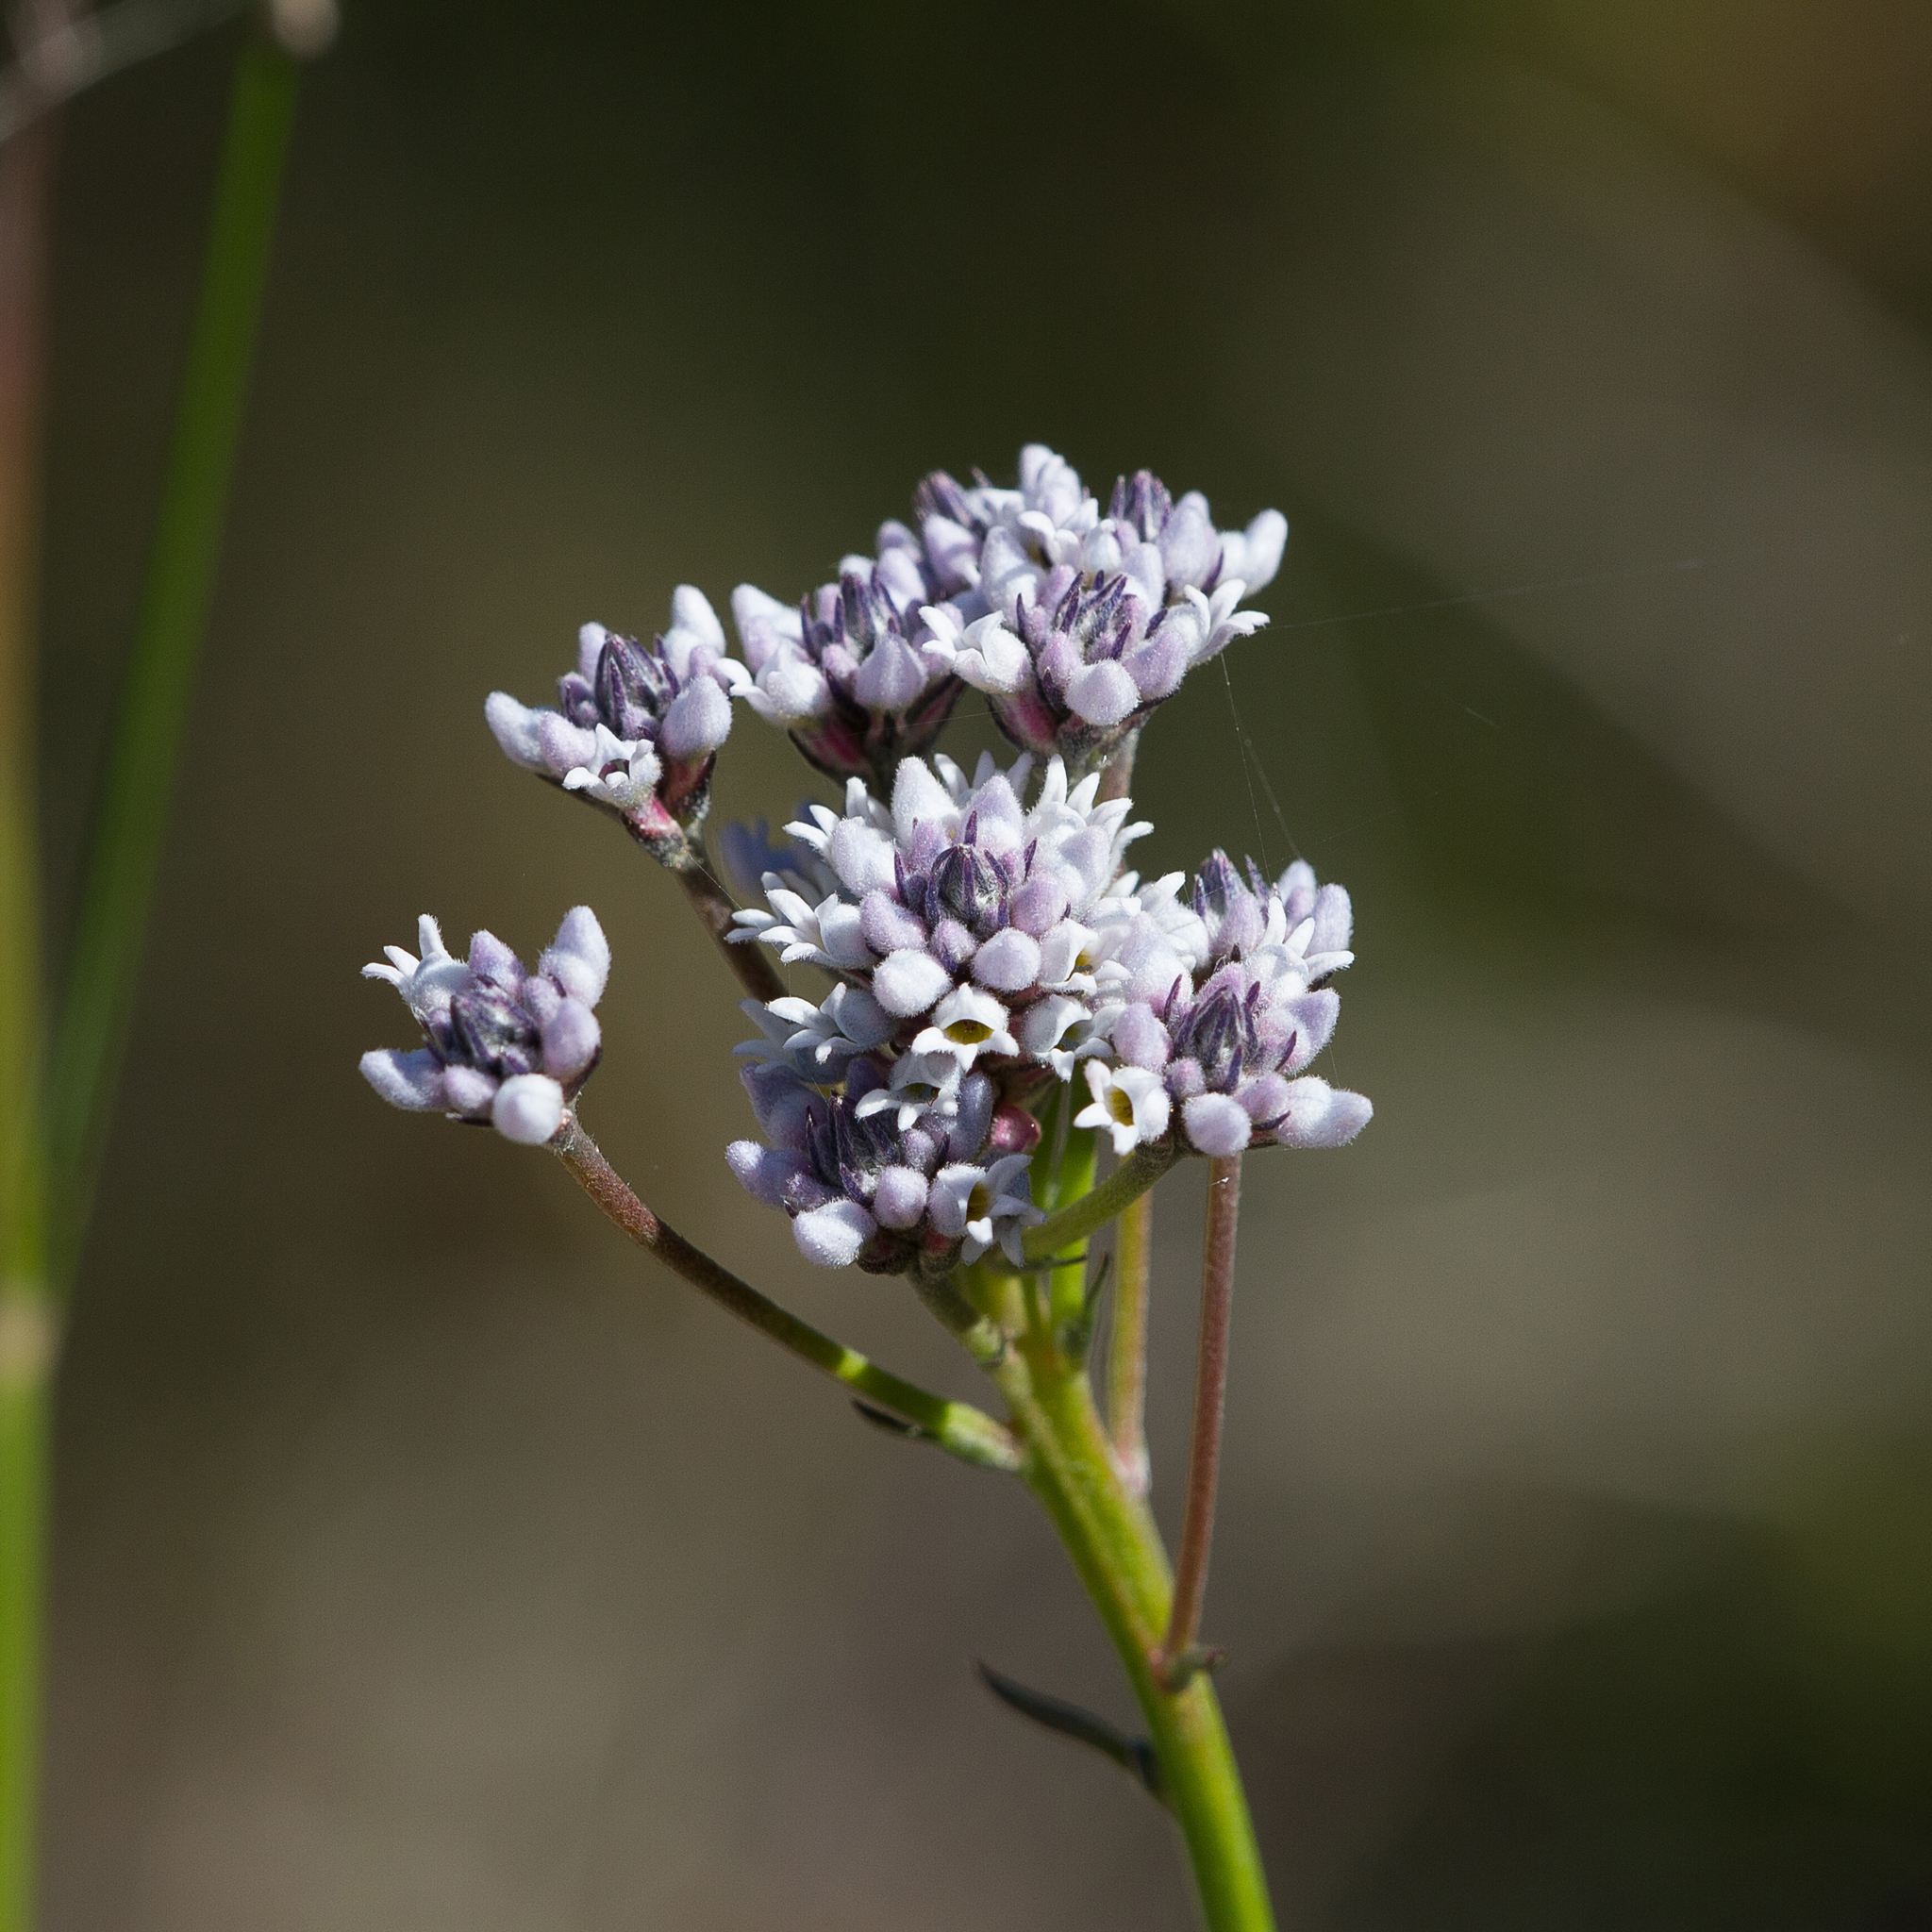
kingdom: Plantae
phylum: Tracheophyta
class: Magnoliopsida
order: Proteales
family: Proteaceae
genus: Conospermum
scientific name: Conospermum patens
